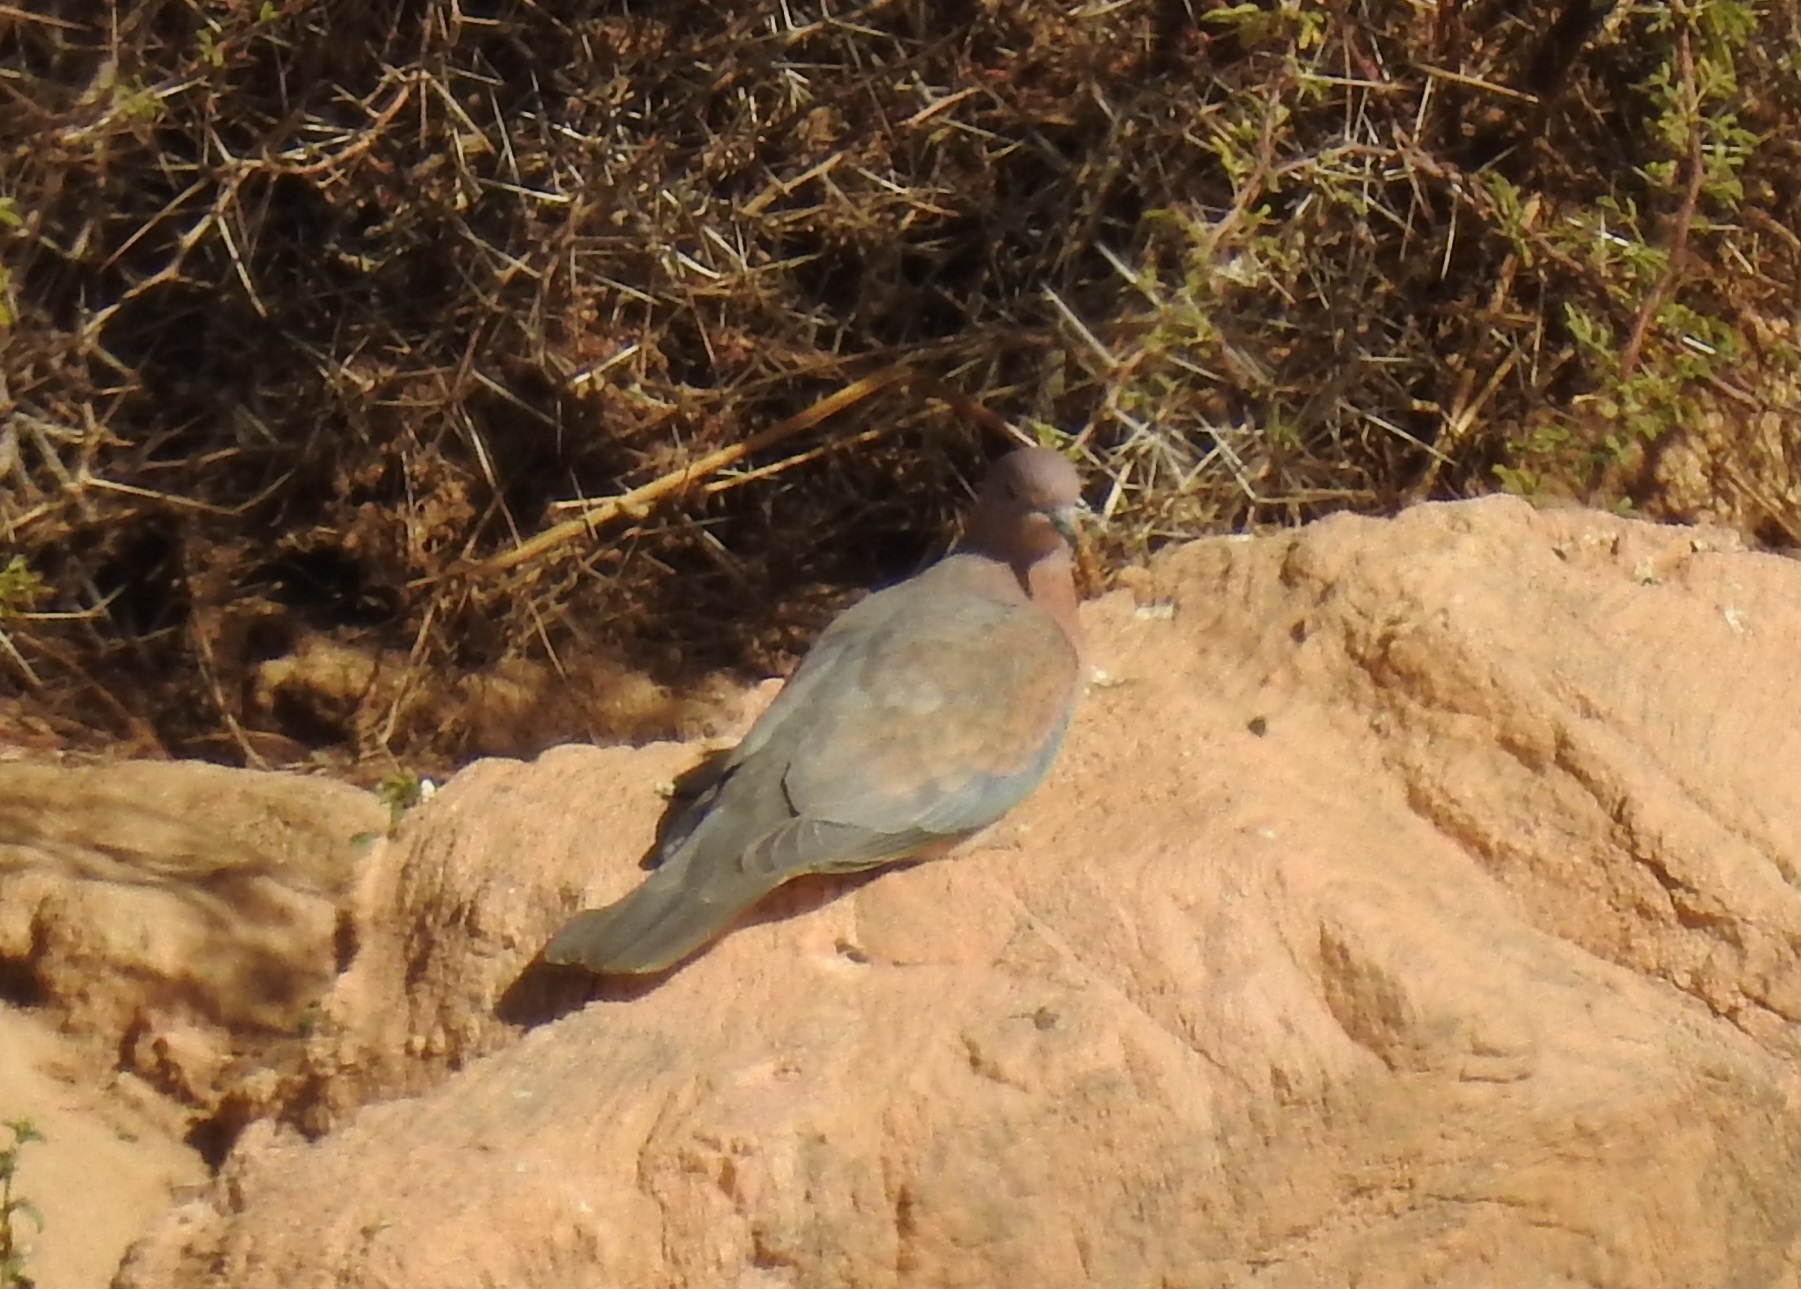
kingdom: Animalia
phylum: Chordata
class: Aves
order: Columbiformes
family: Columbidae
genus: Spilopelia
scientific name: Spilopelia senegalensis
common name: Laughing dove
